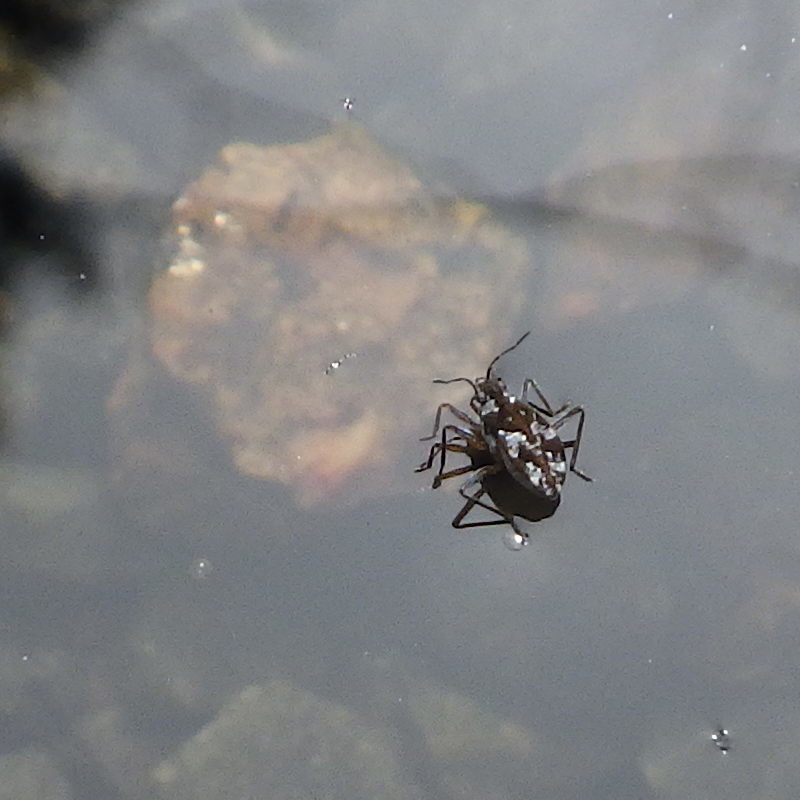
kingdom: Animalia
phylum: Arthropoda
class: Insecta
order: Hemiptera
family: Veliidae
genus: Microvelia
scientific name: Microvelia americana
